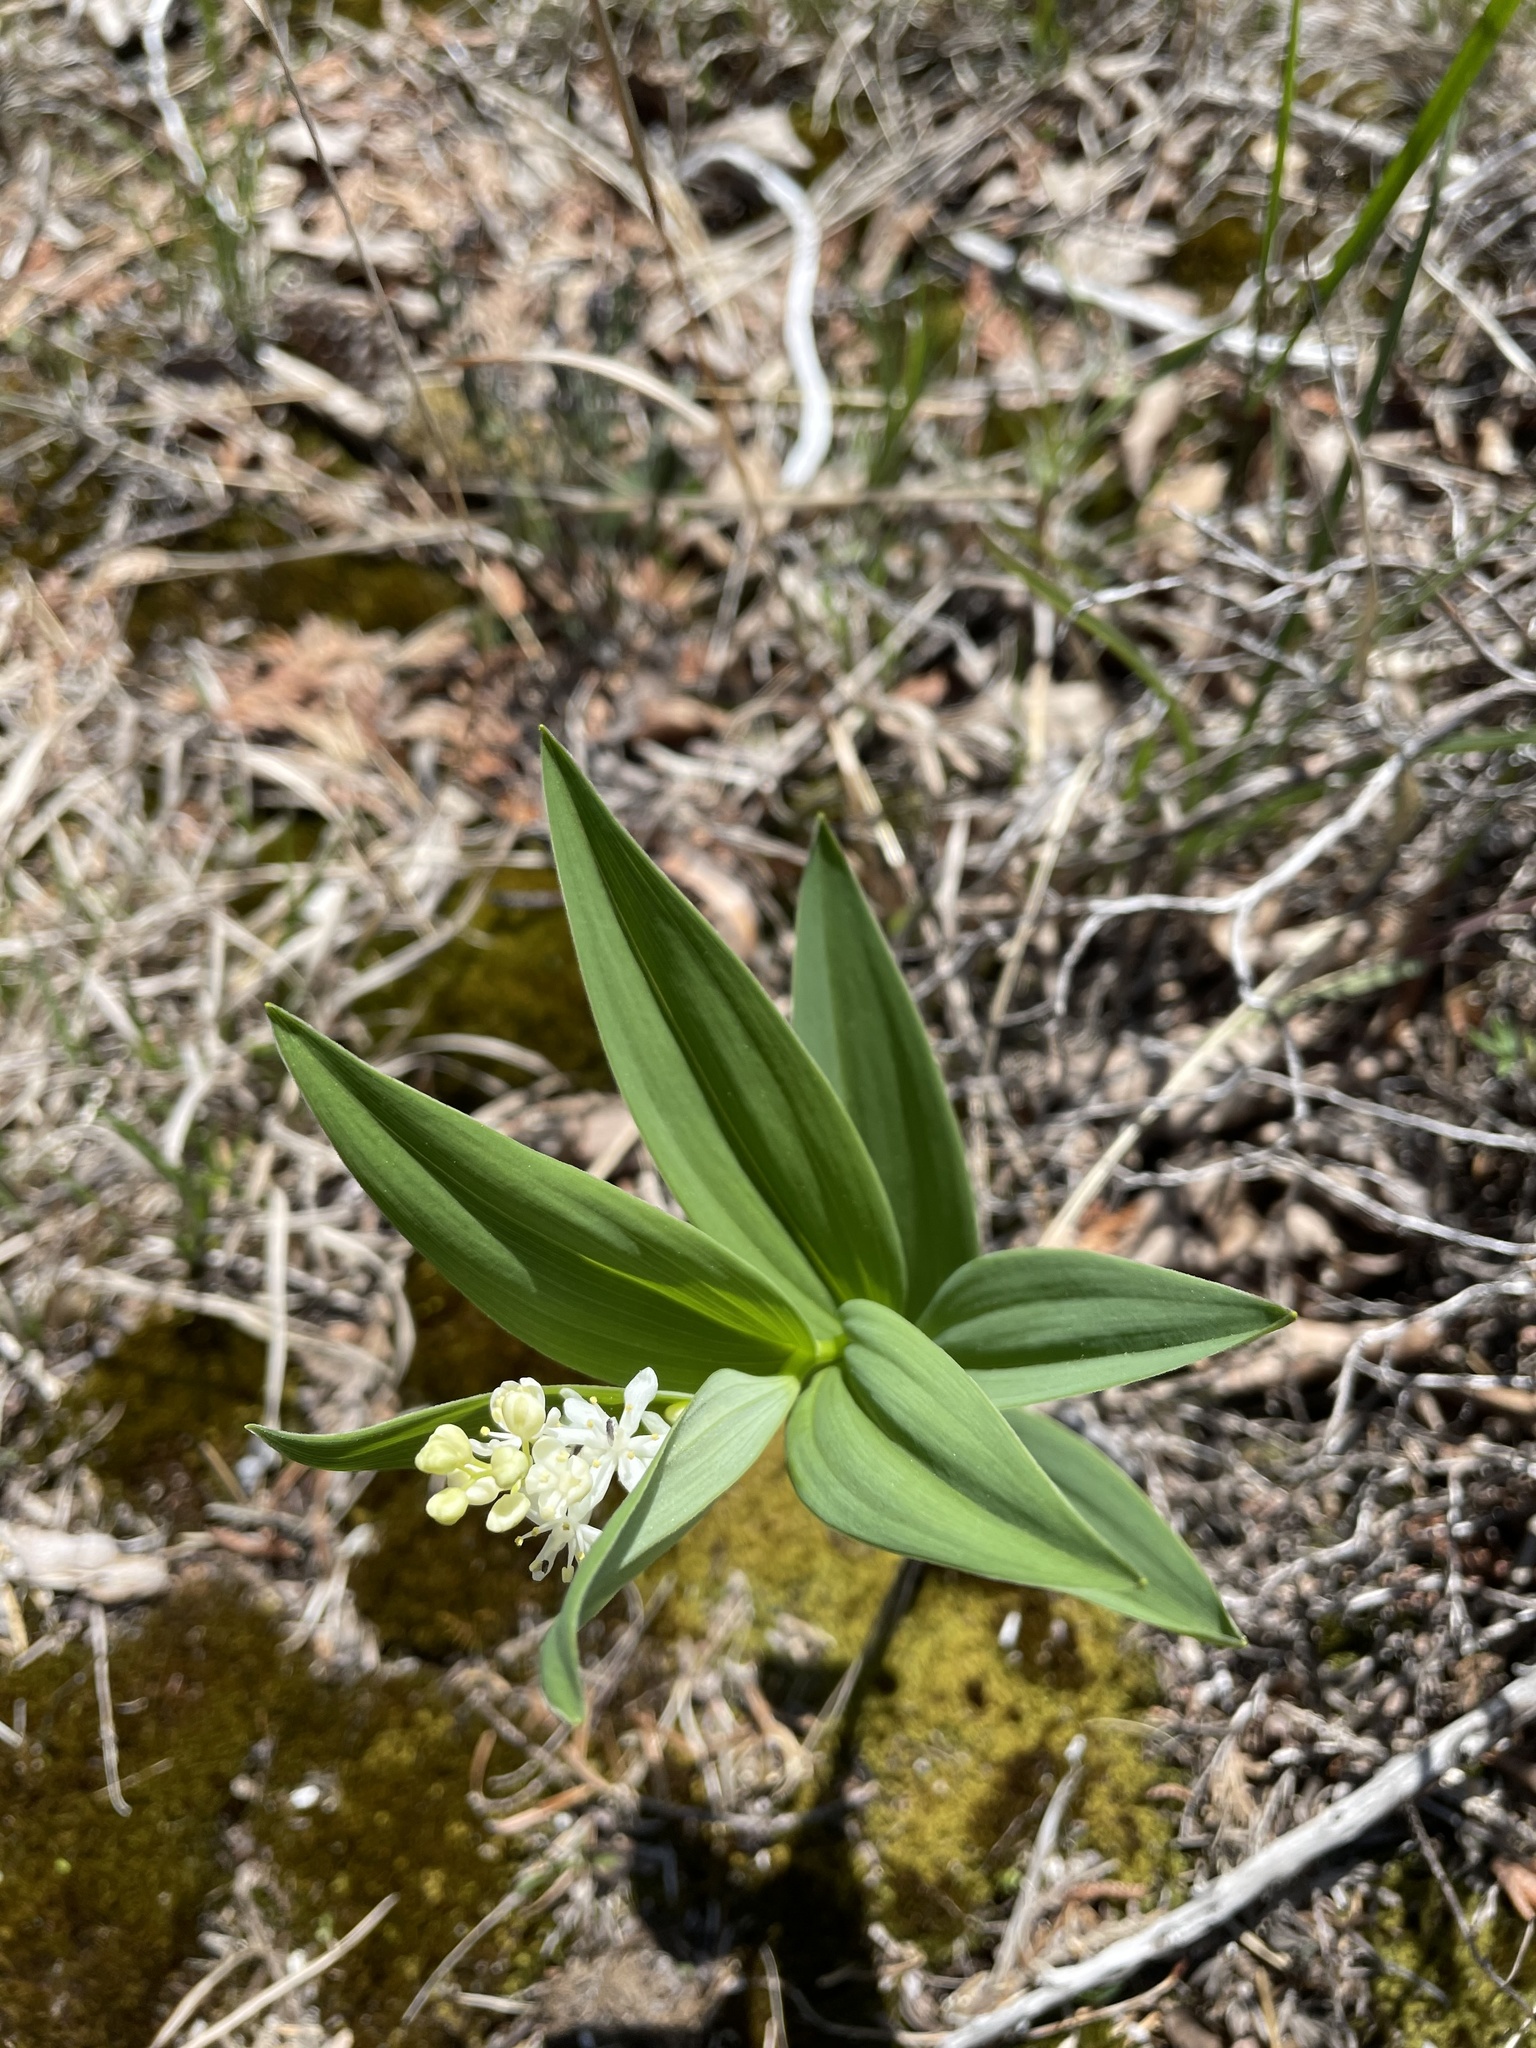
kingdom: Plantae
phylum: Tracheophyta
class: Liliopsida
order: Asparagales
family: Asparagaceae
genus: Maianthemum
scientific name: Maianthemum stellatum
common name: Little false solomon's seal
